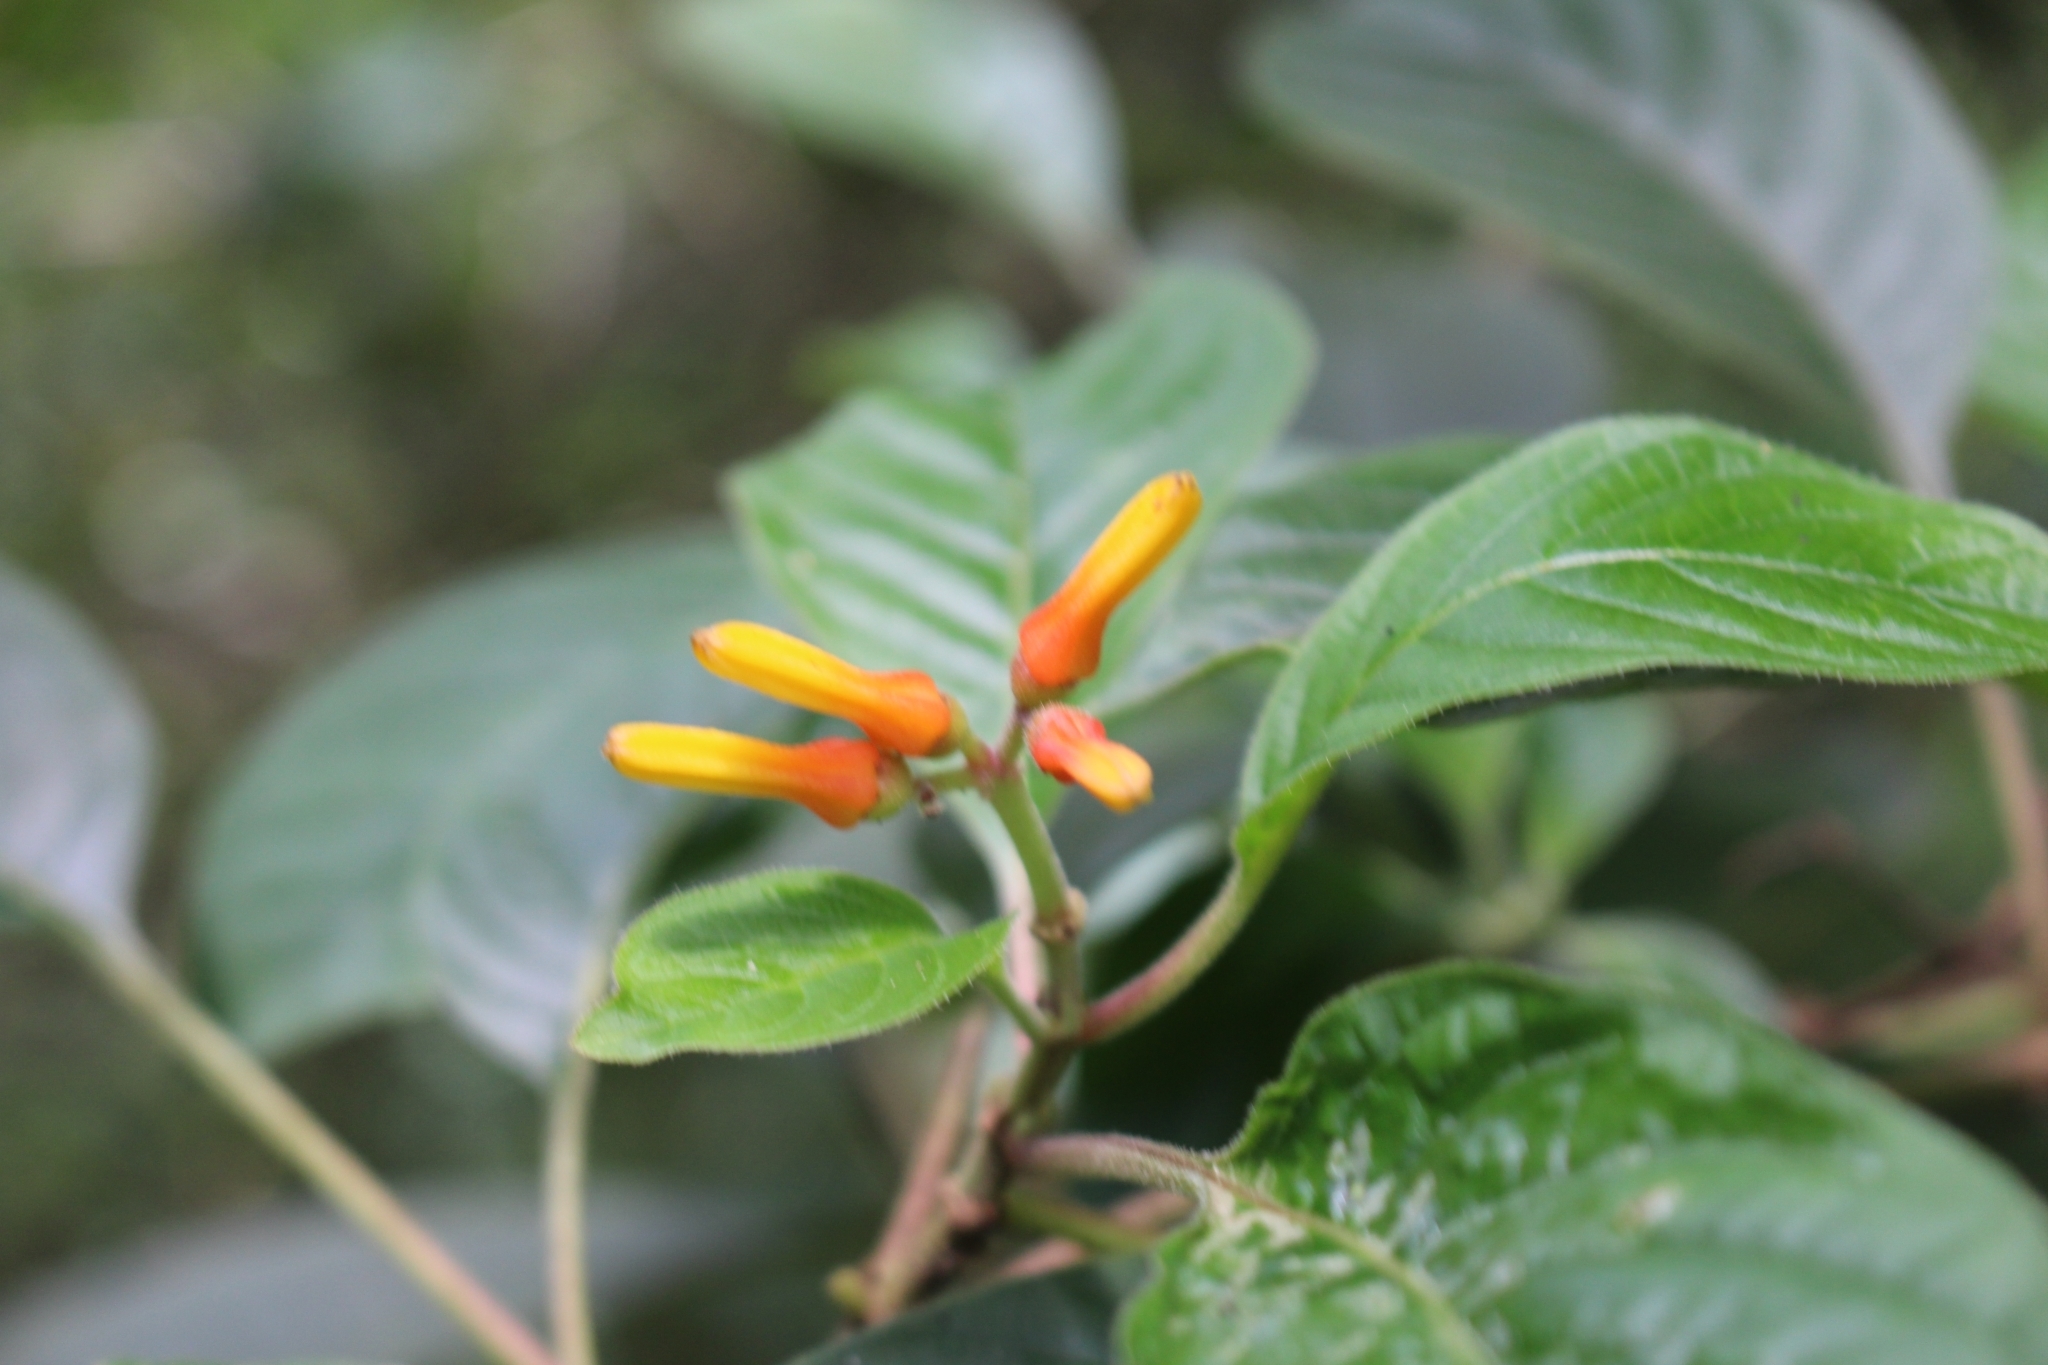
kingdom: Plantae
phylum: Tracheophyta
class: Magnoliopsida
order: Gentianales
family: Rubiaceae
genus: Hamelia
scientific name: Hamelia patens
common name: Redhead
